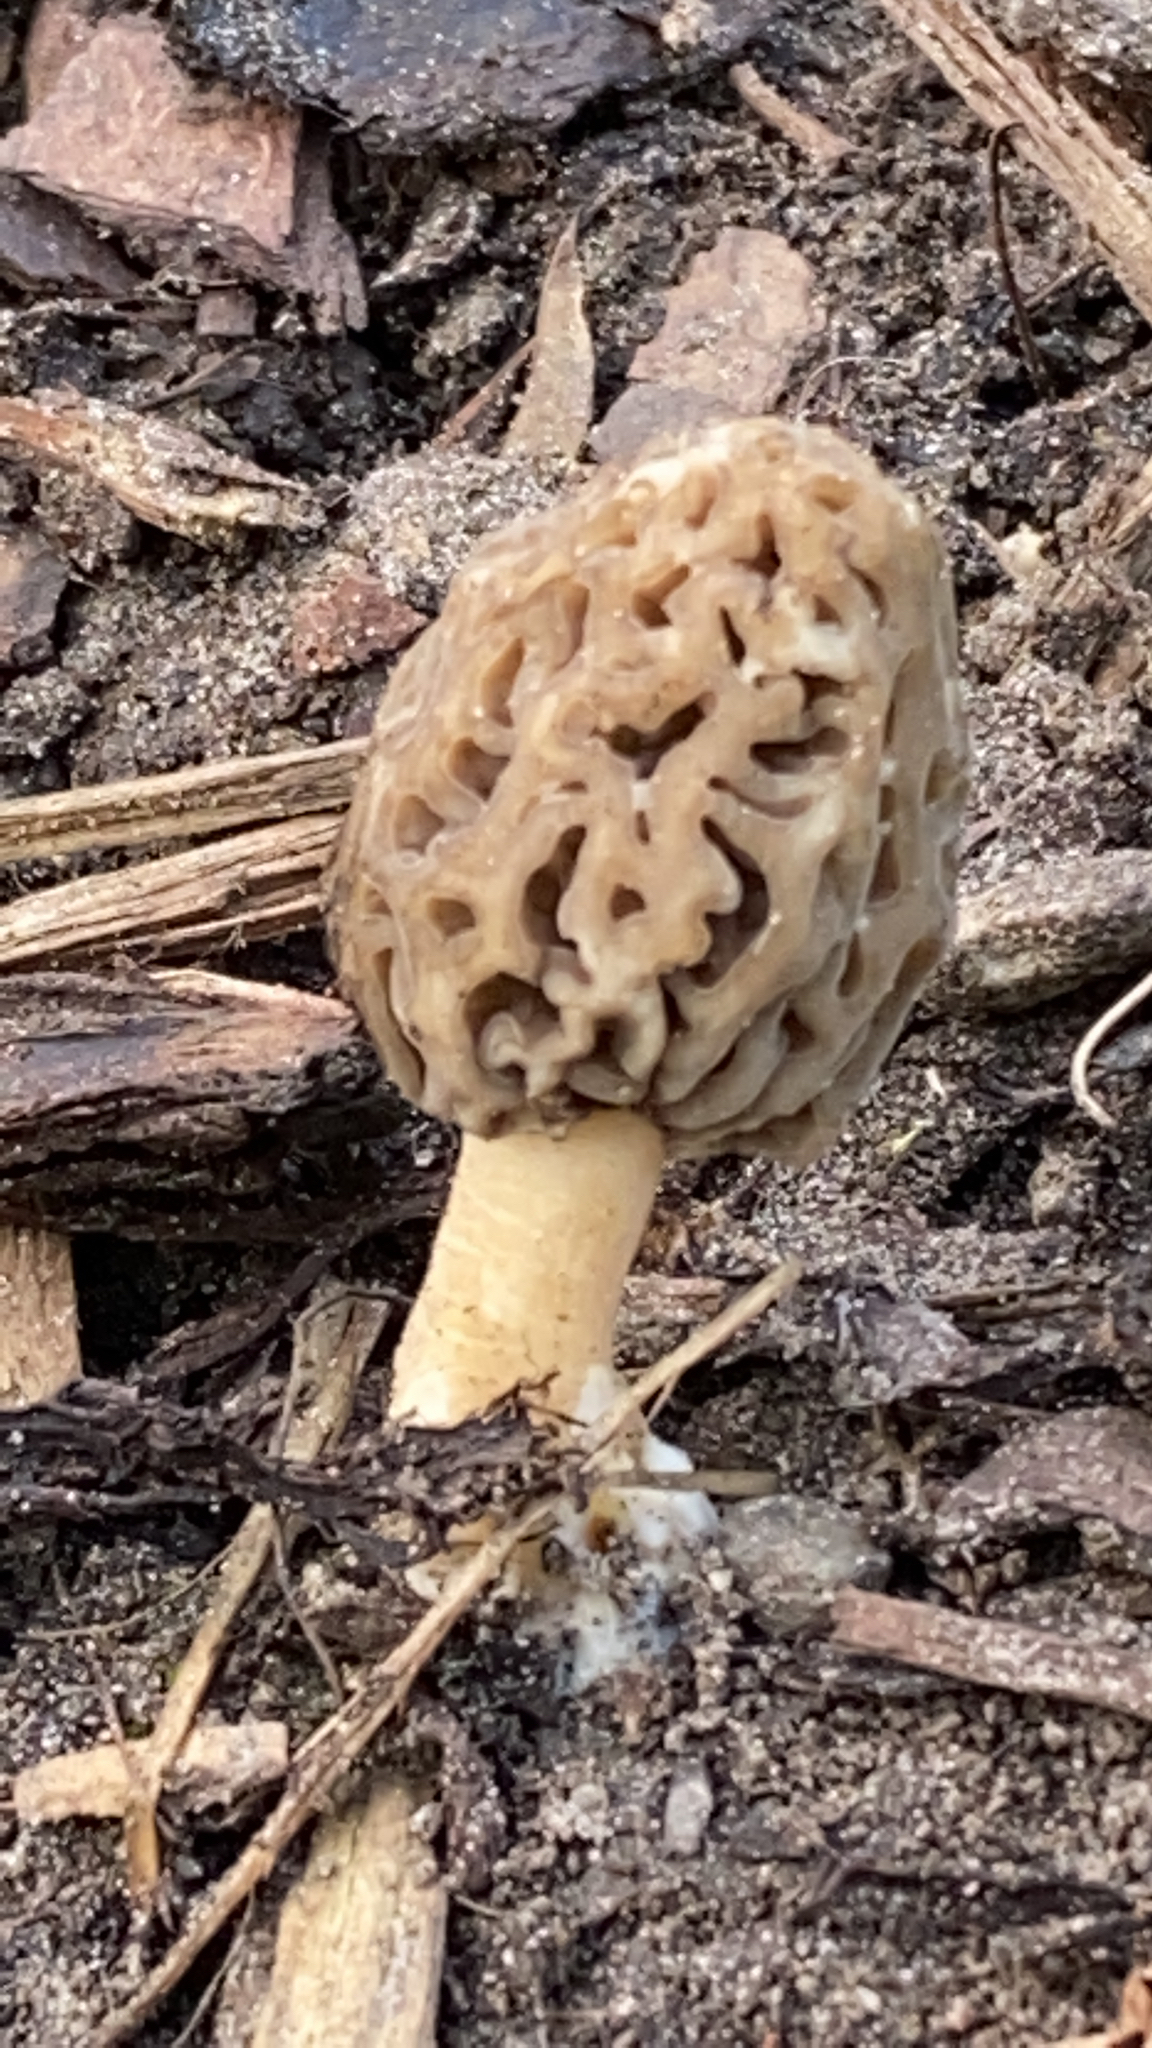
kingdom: Fungi
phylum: Ascomycota
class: Pezizomycetes
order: Pezizales
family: Morchellaceae
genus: Morchella
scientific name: Morchella esculenta
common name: Morel
